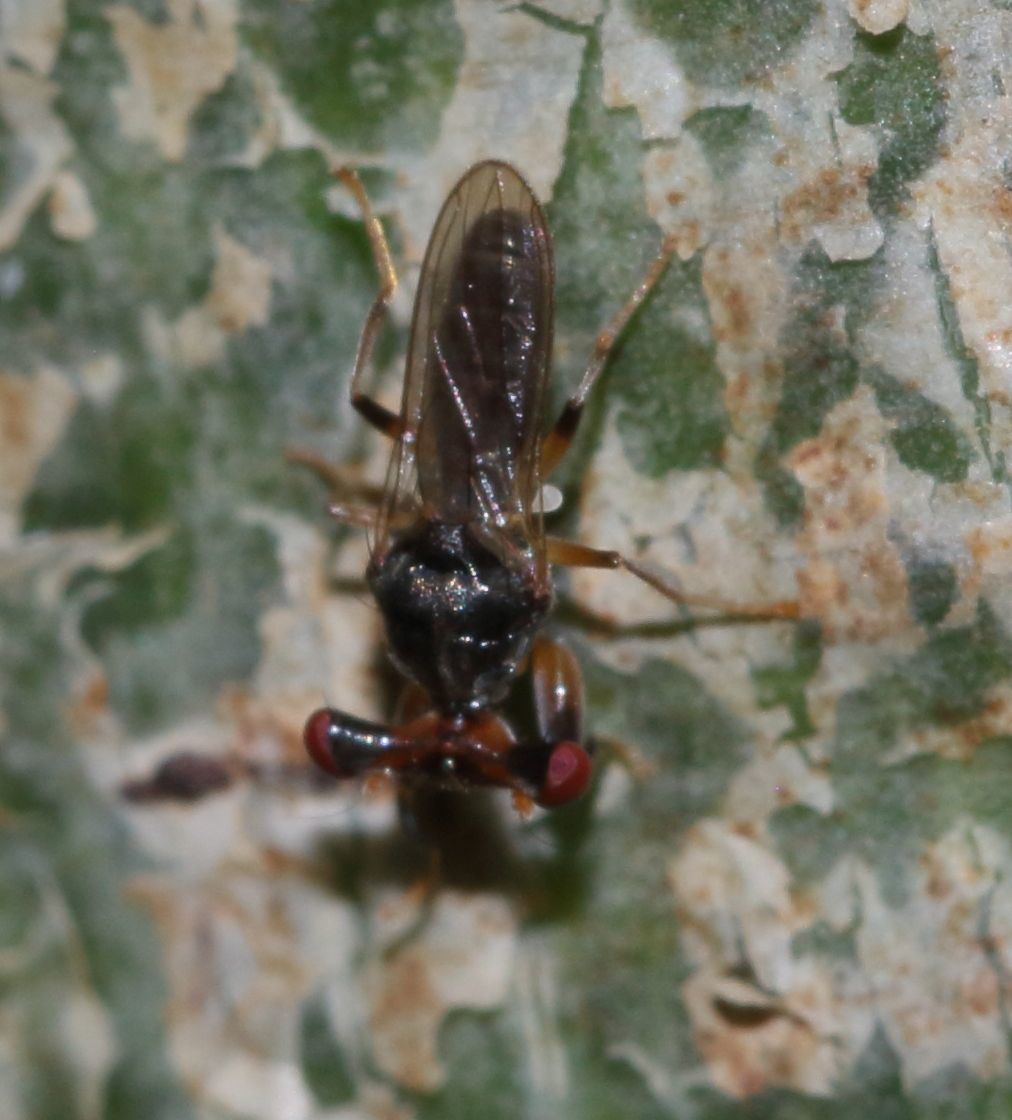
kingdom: Animalia
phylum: Arthropoda
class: Insecta
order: Diptera
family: Diopsidae
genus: Sphyracephala
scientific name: Sphyracephala beccarii
